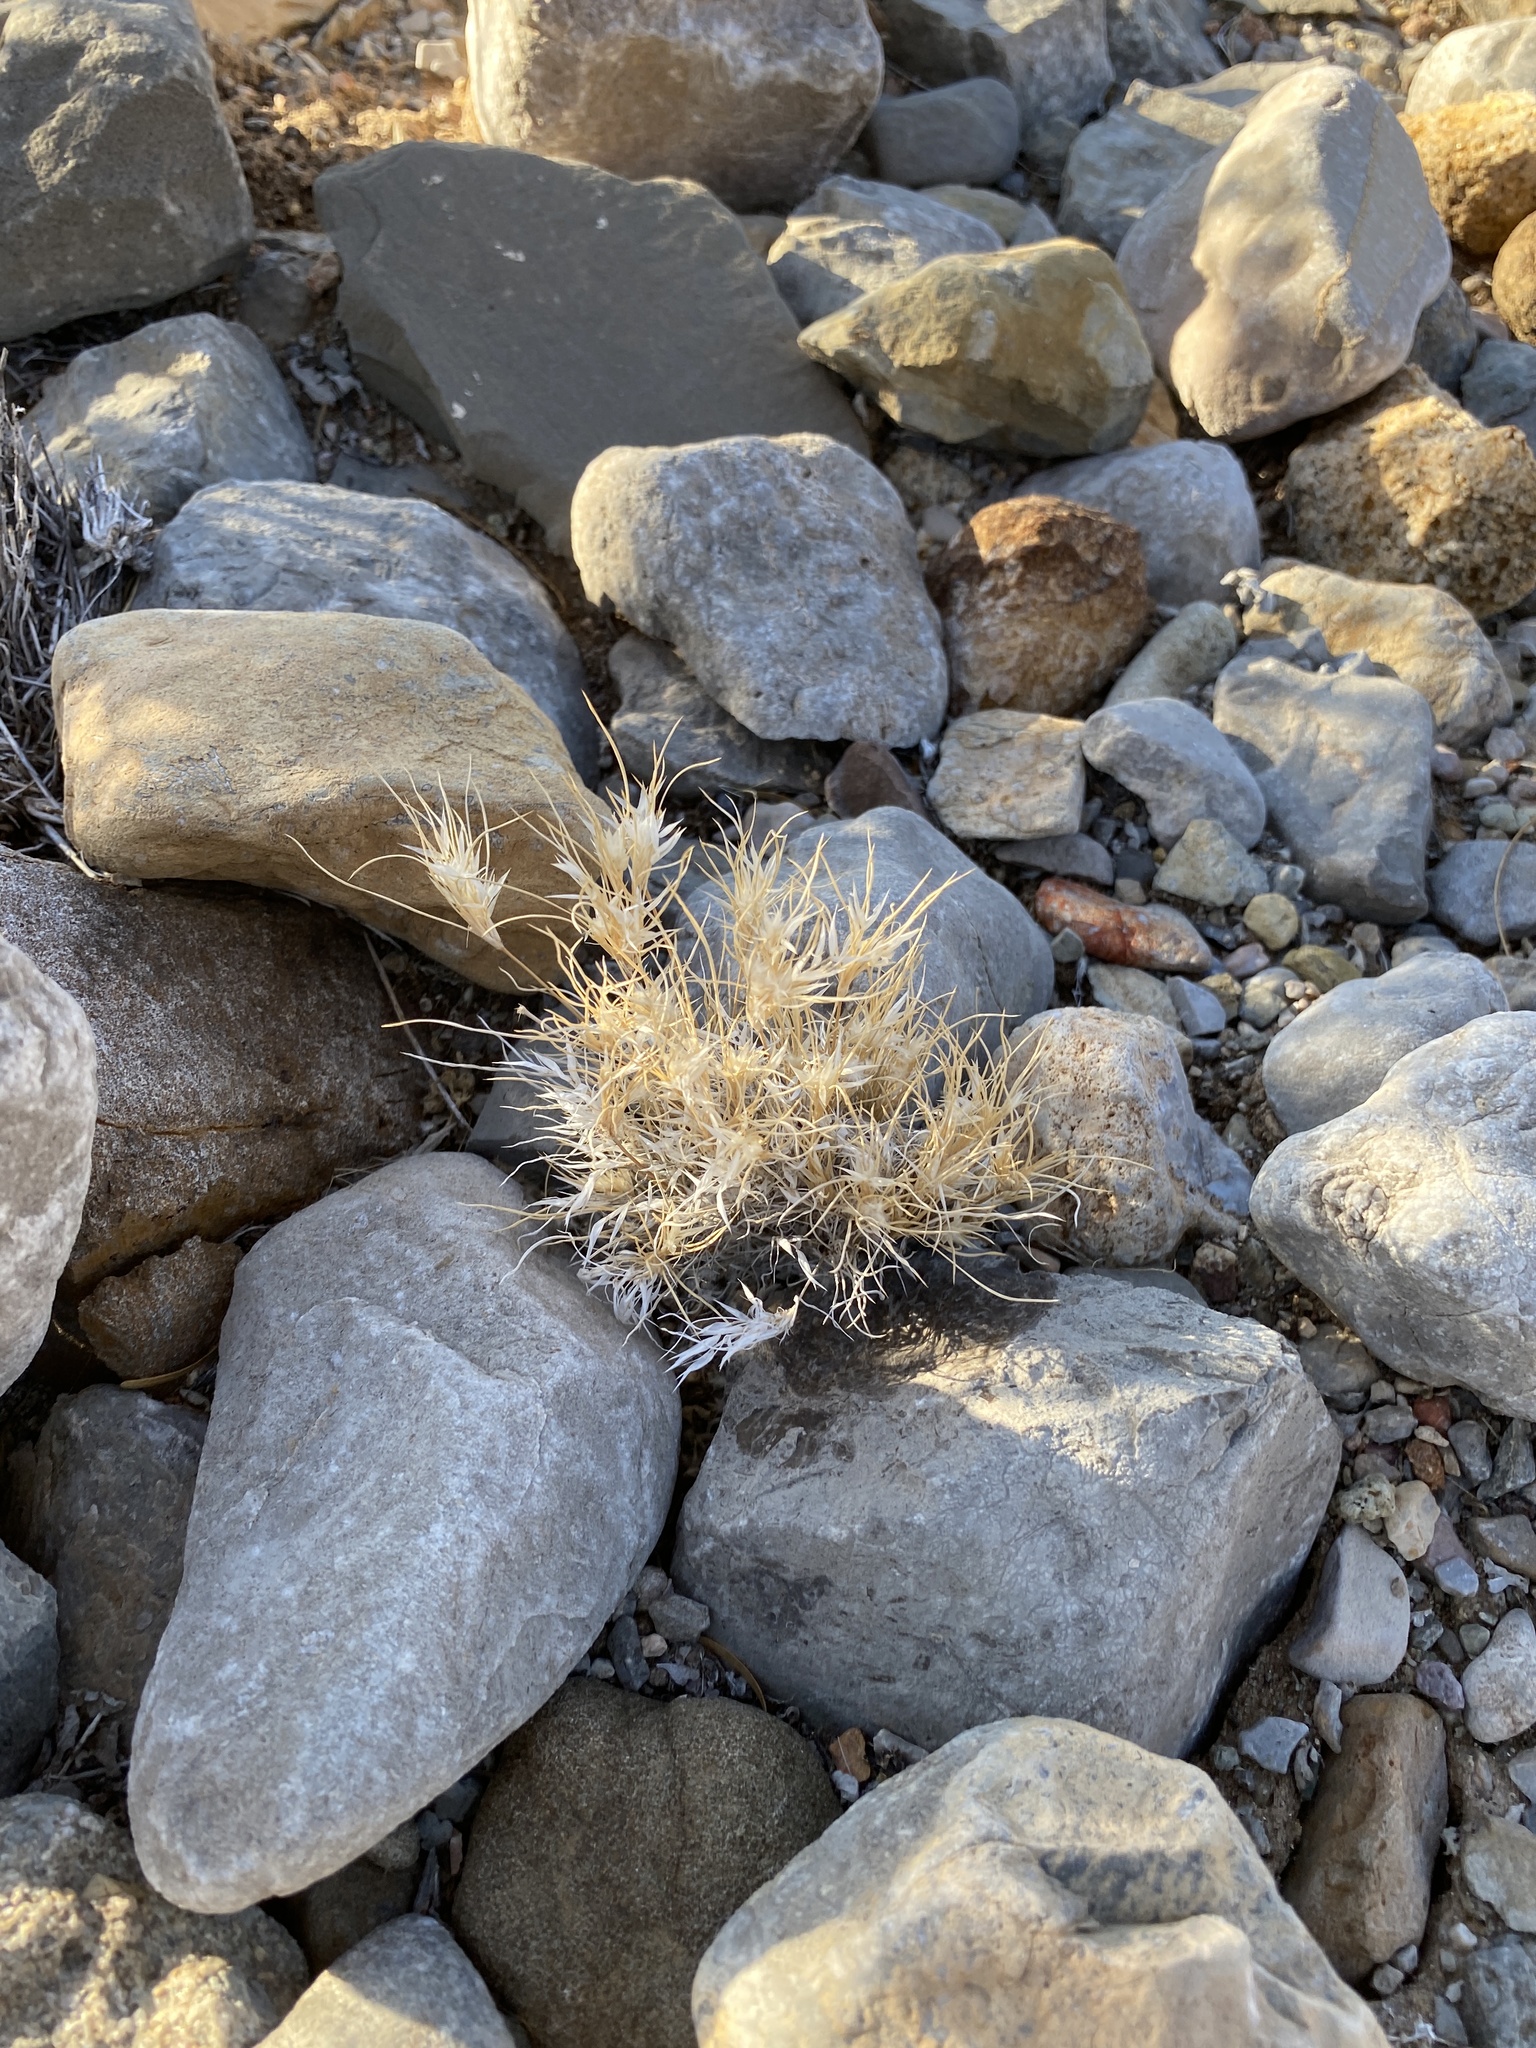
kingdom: Plantae
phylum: Tracheophyta
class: Liliopsida
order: Poales
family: Poaceae
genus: Dasyochloa
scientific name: Dasyochloa pulchella
